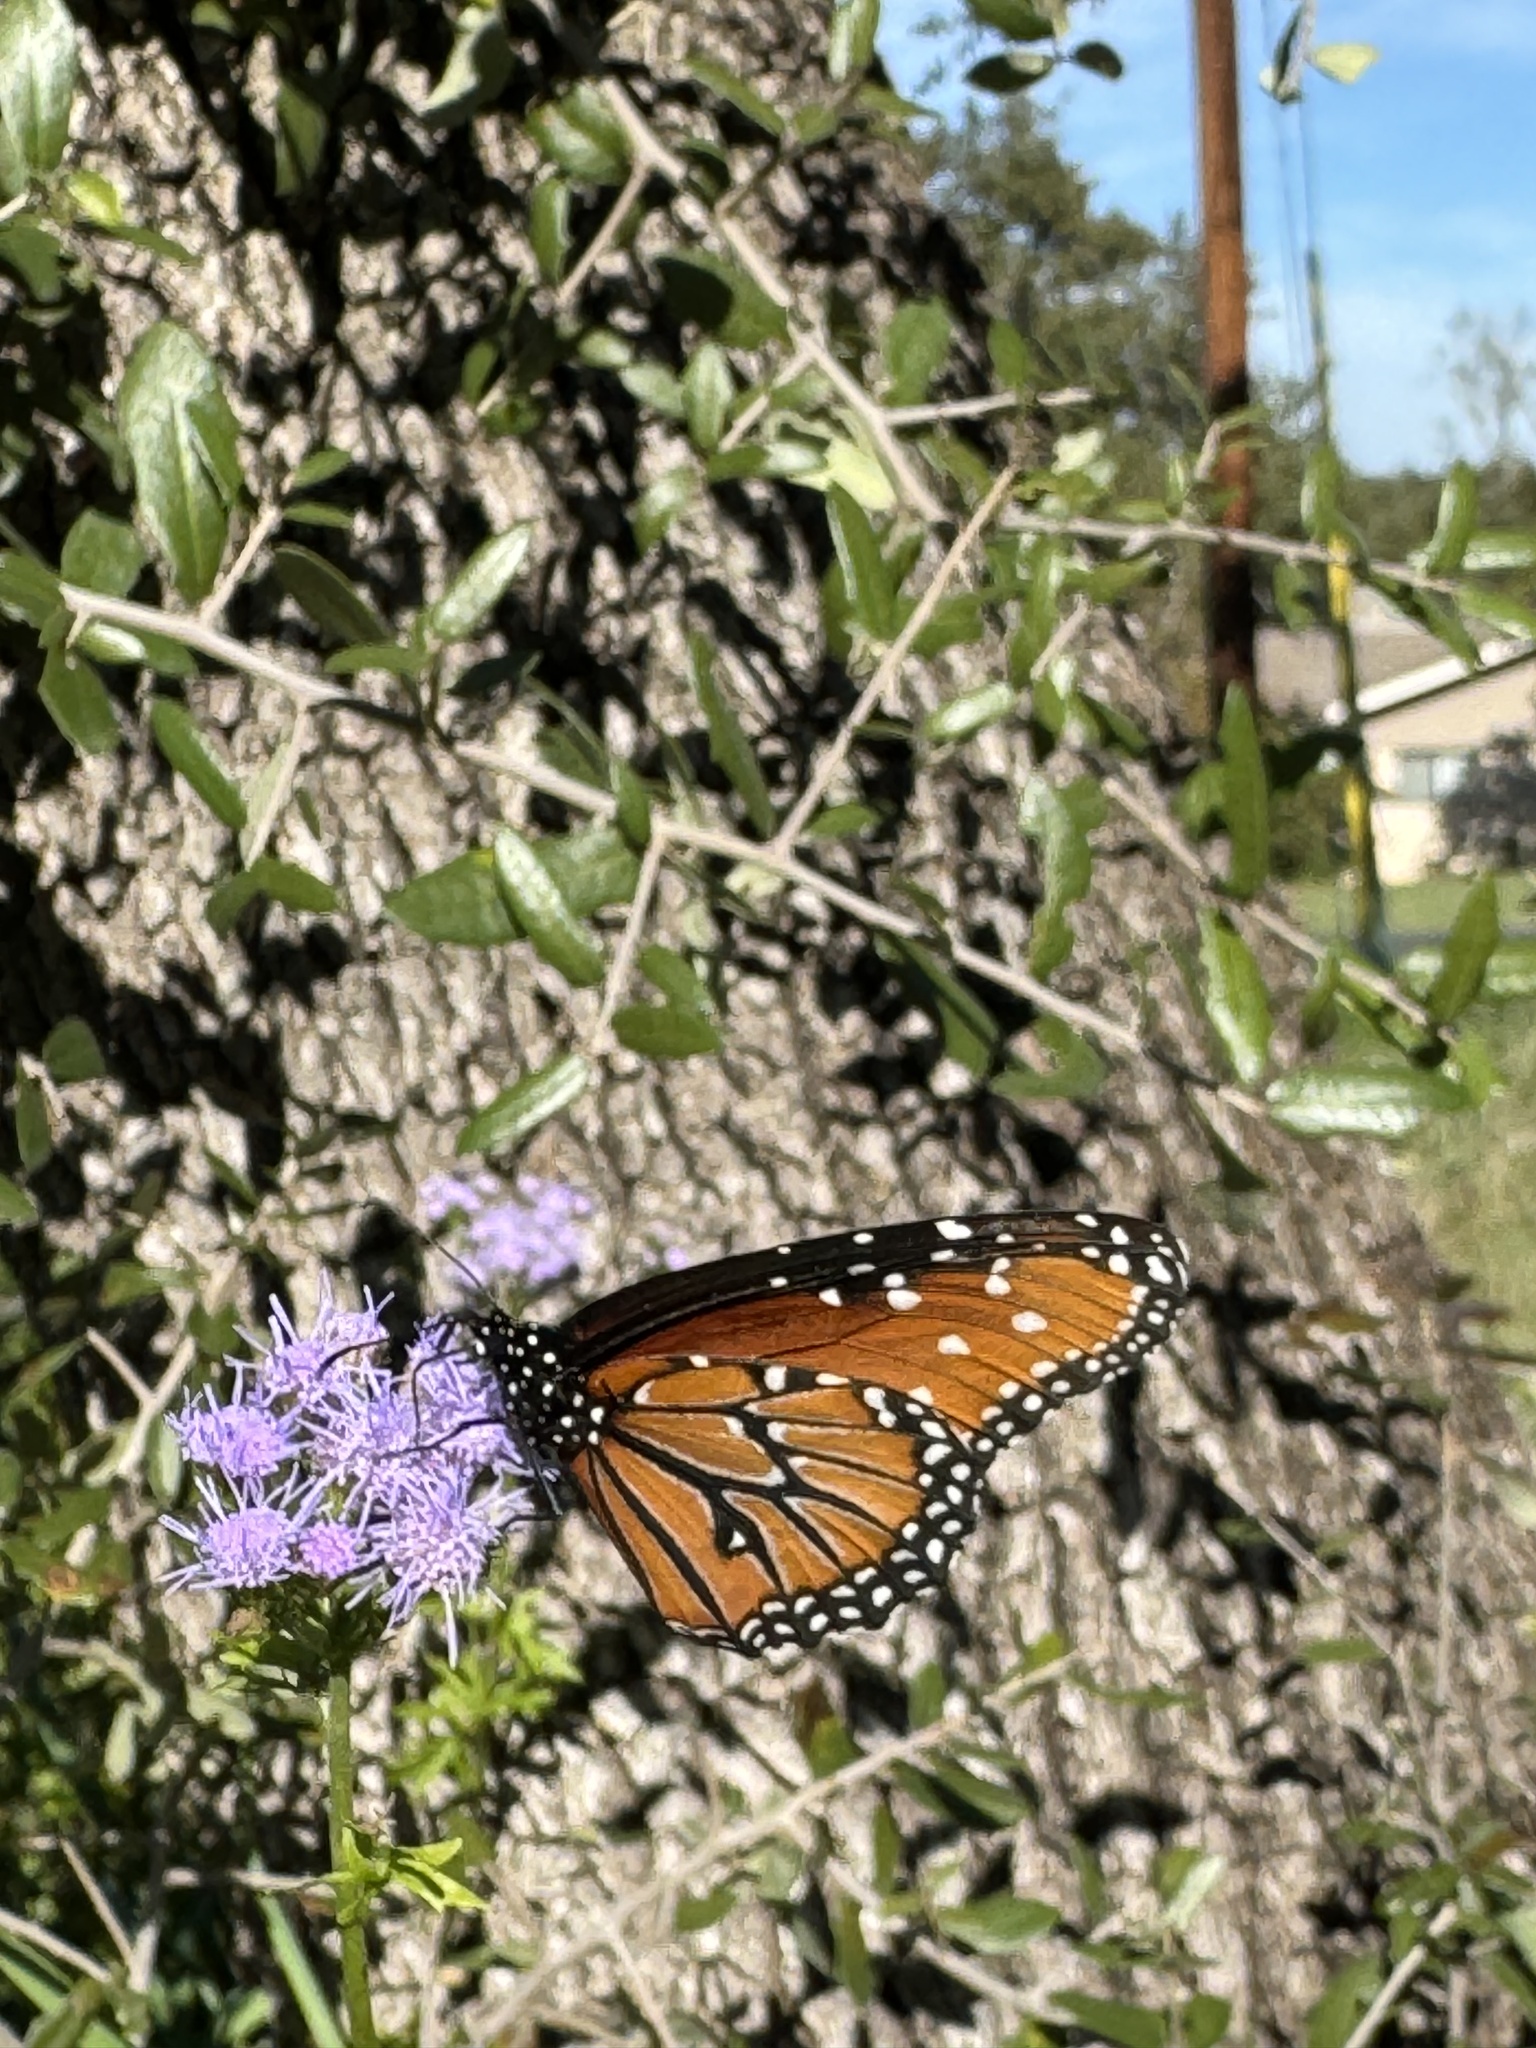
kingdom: Animalia
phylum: Arthropoda
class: Insecta
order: Lepidoptera
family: Nymphalidae
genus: Danaus
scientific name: Danaus gilippus
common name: Queen
